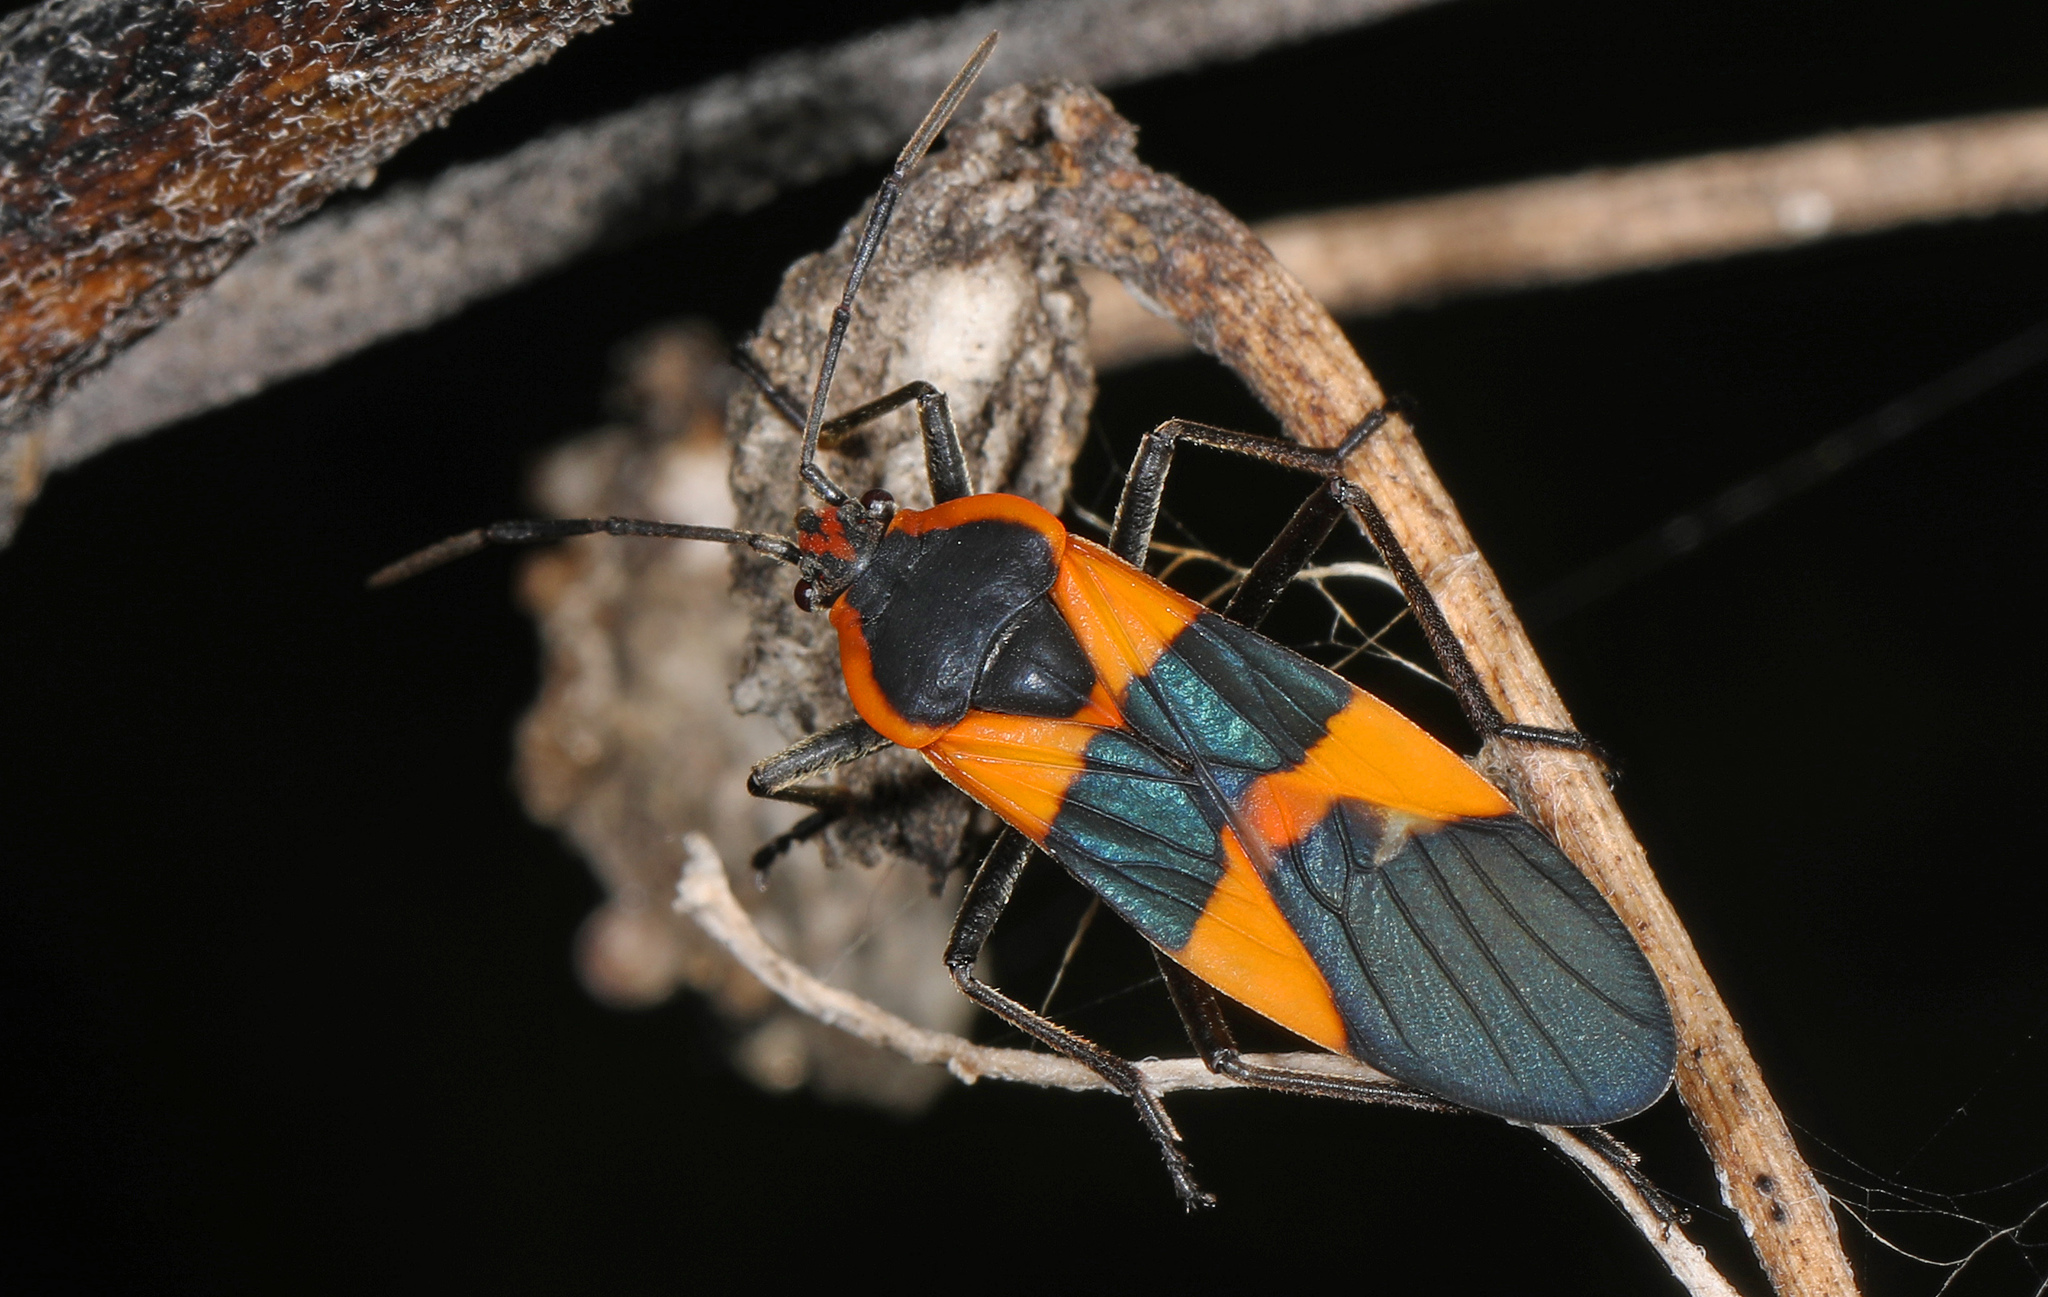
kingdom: Animalia
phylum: Arthropoda
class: Insecta
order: Hemiptera
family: Lygaeidae
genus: Oncopeltus
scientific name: Oncopeltus fasciatus
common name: Large milkweed bug
